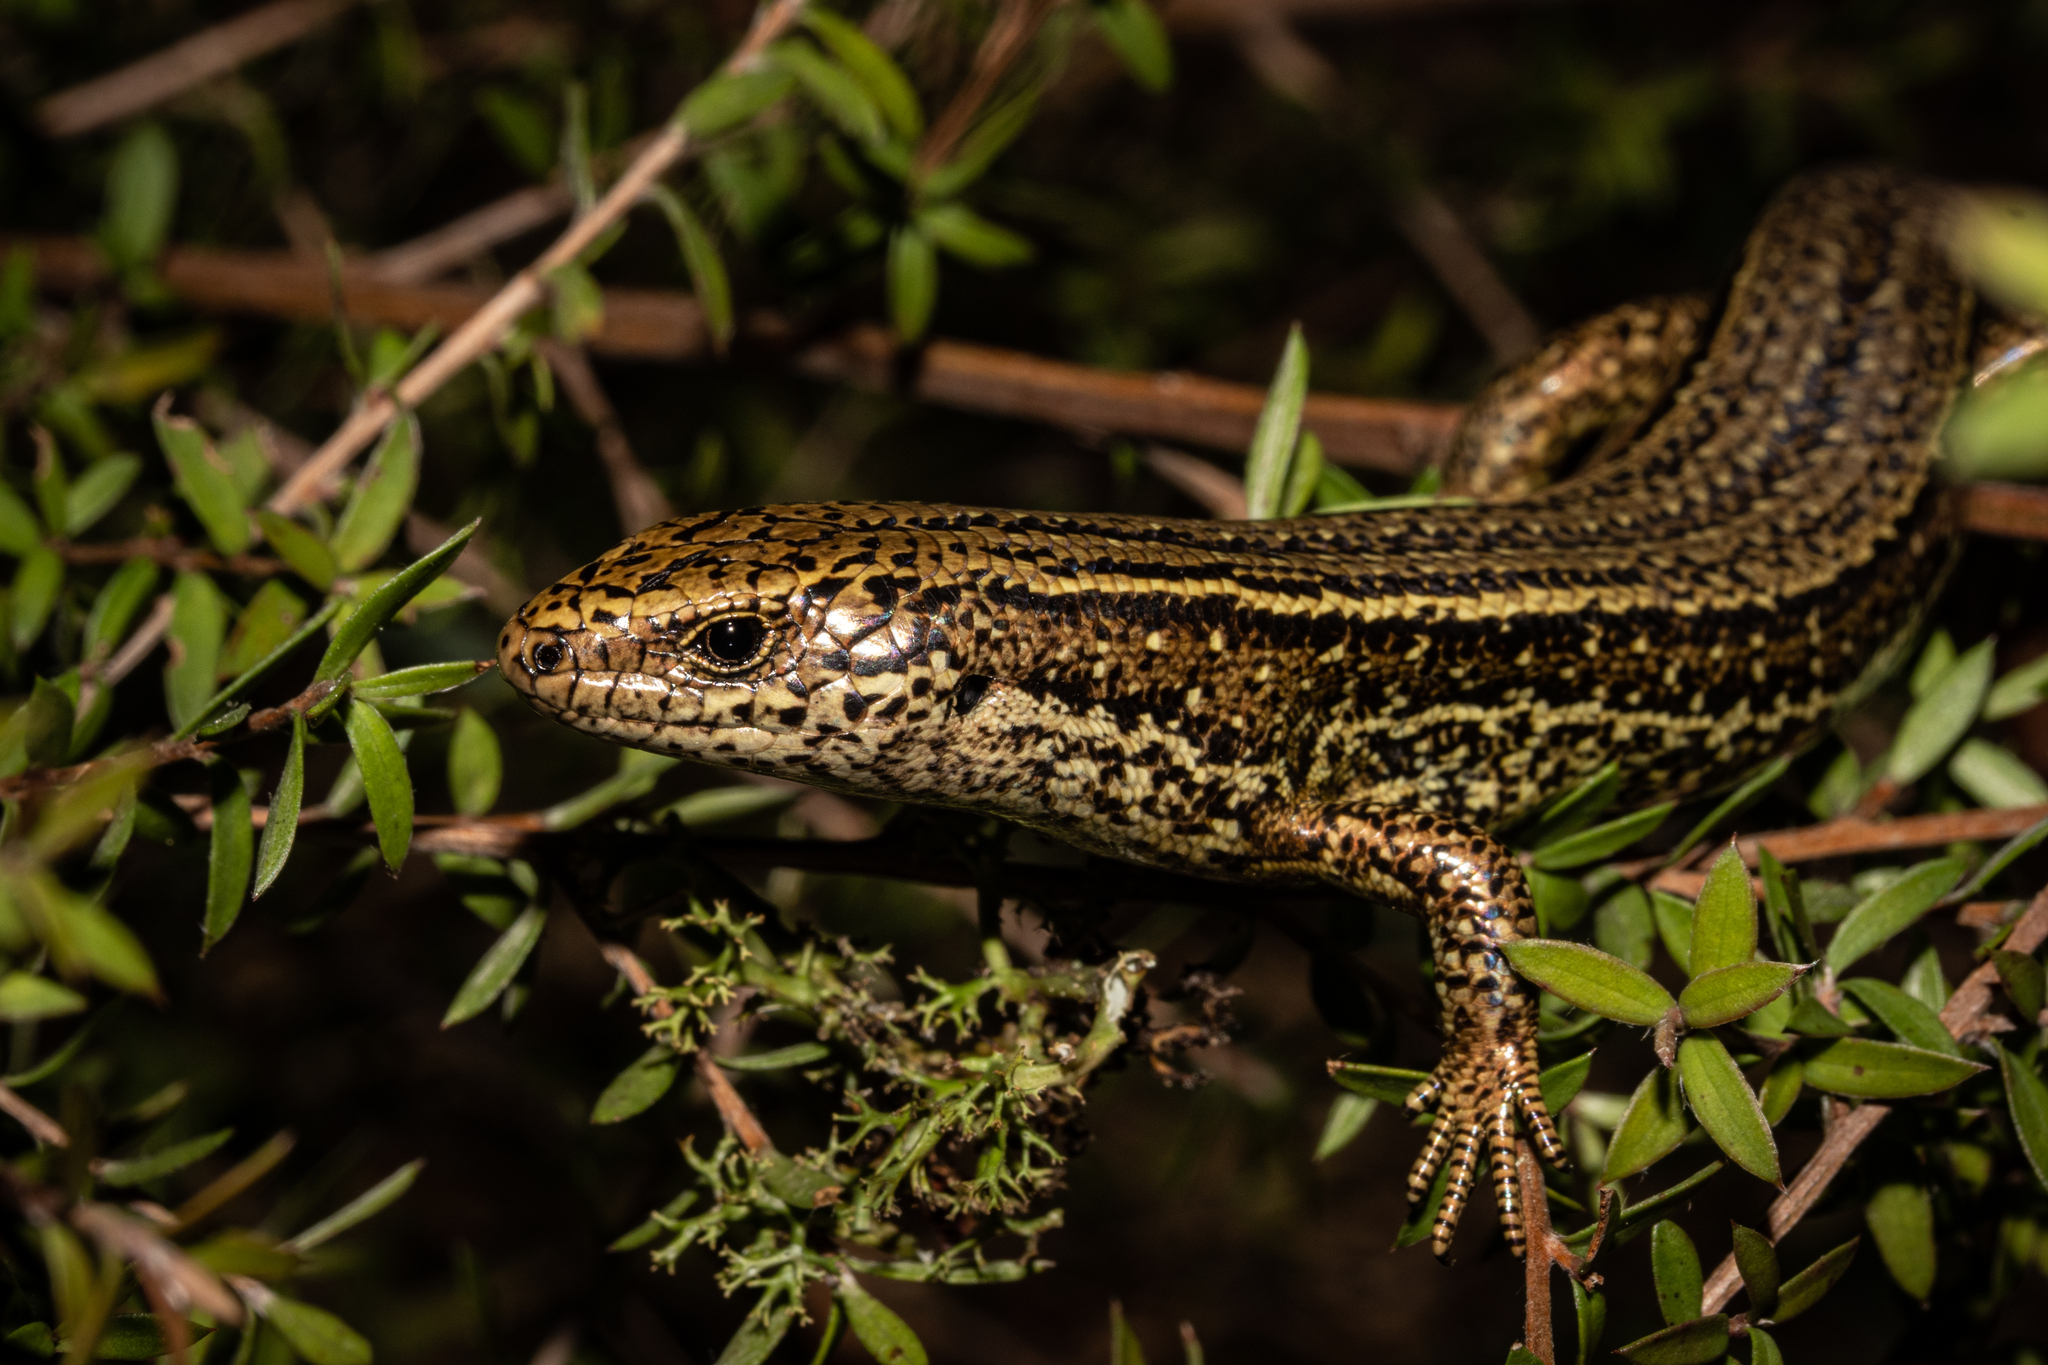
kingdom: Animalia
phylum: Chordata
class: Squamata
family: Scincidae
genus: Oligosoma
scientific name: Oligosoma robinsoni
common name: Cobble skink
